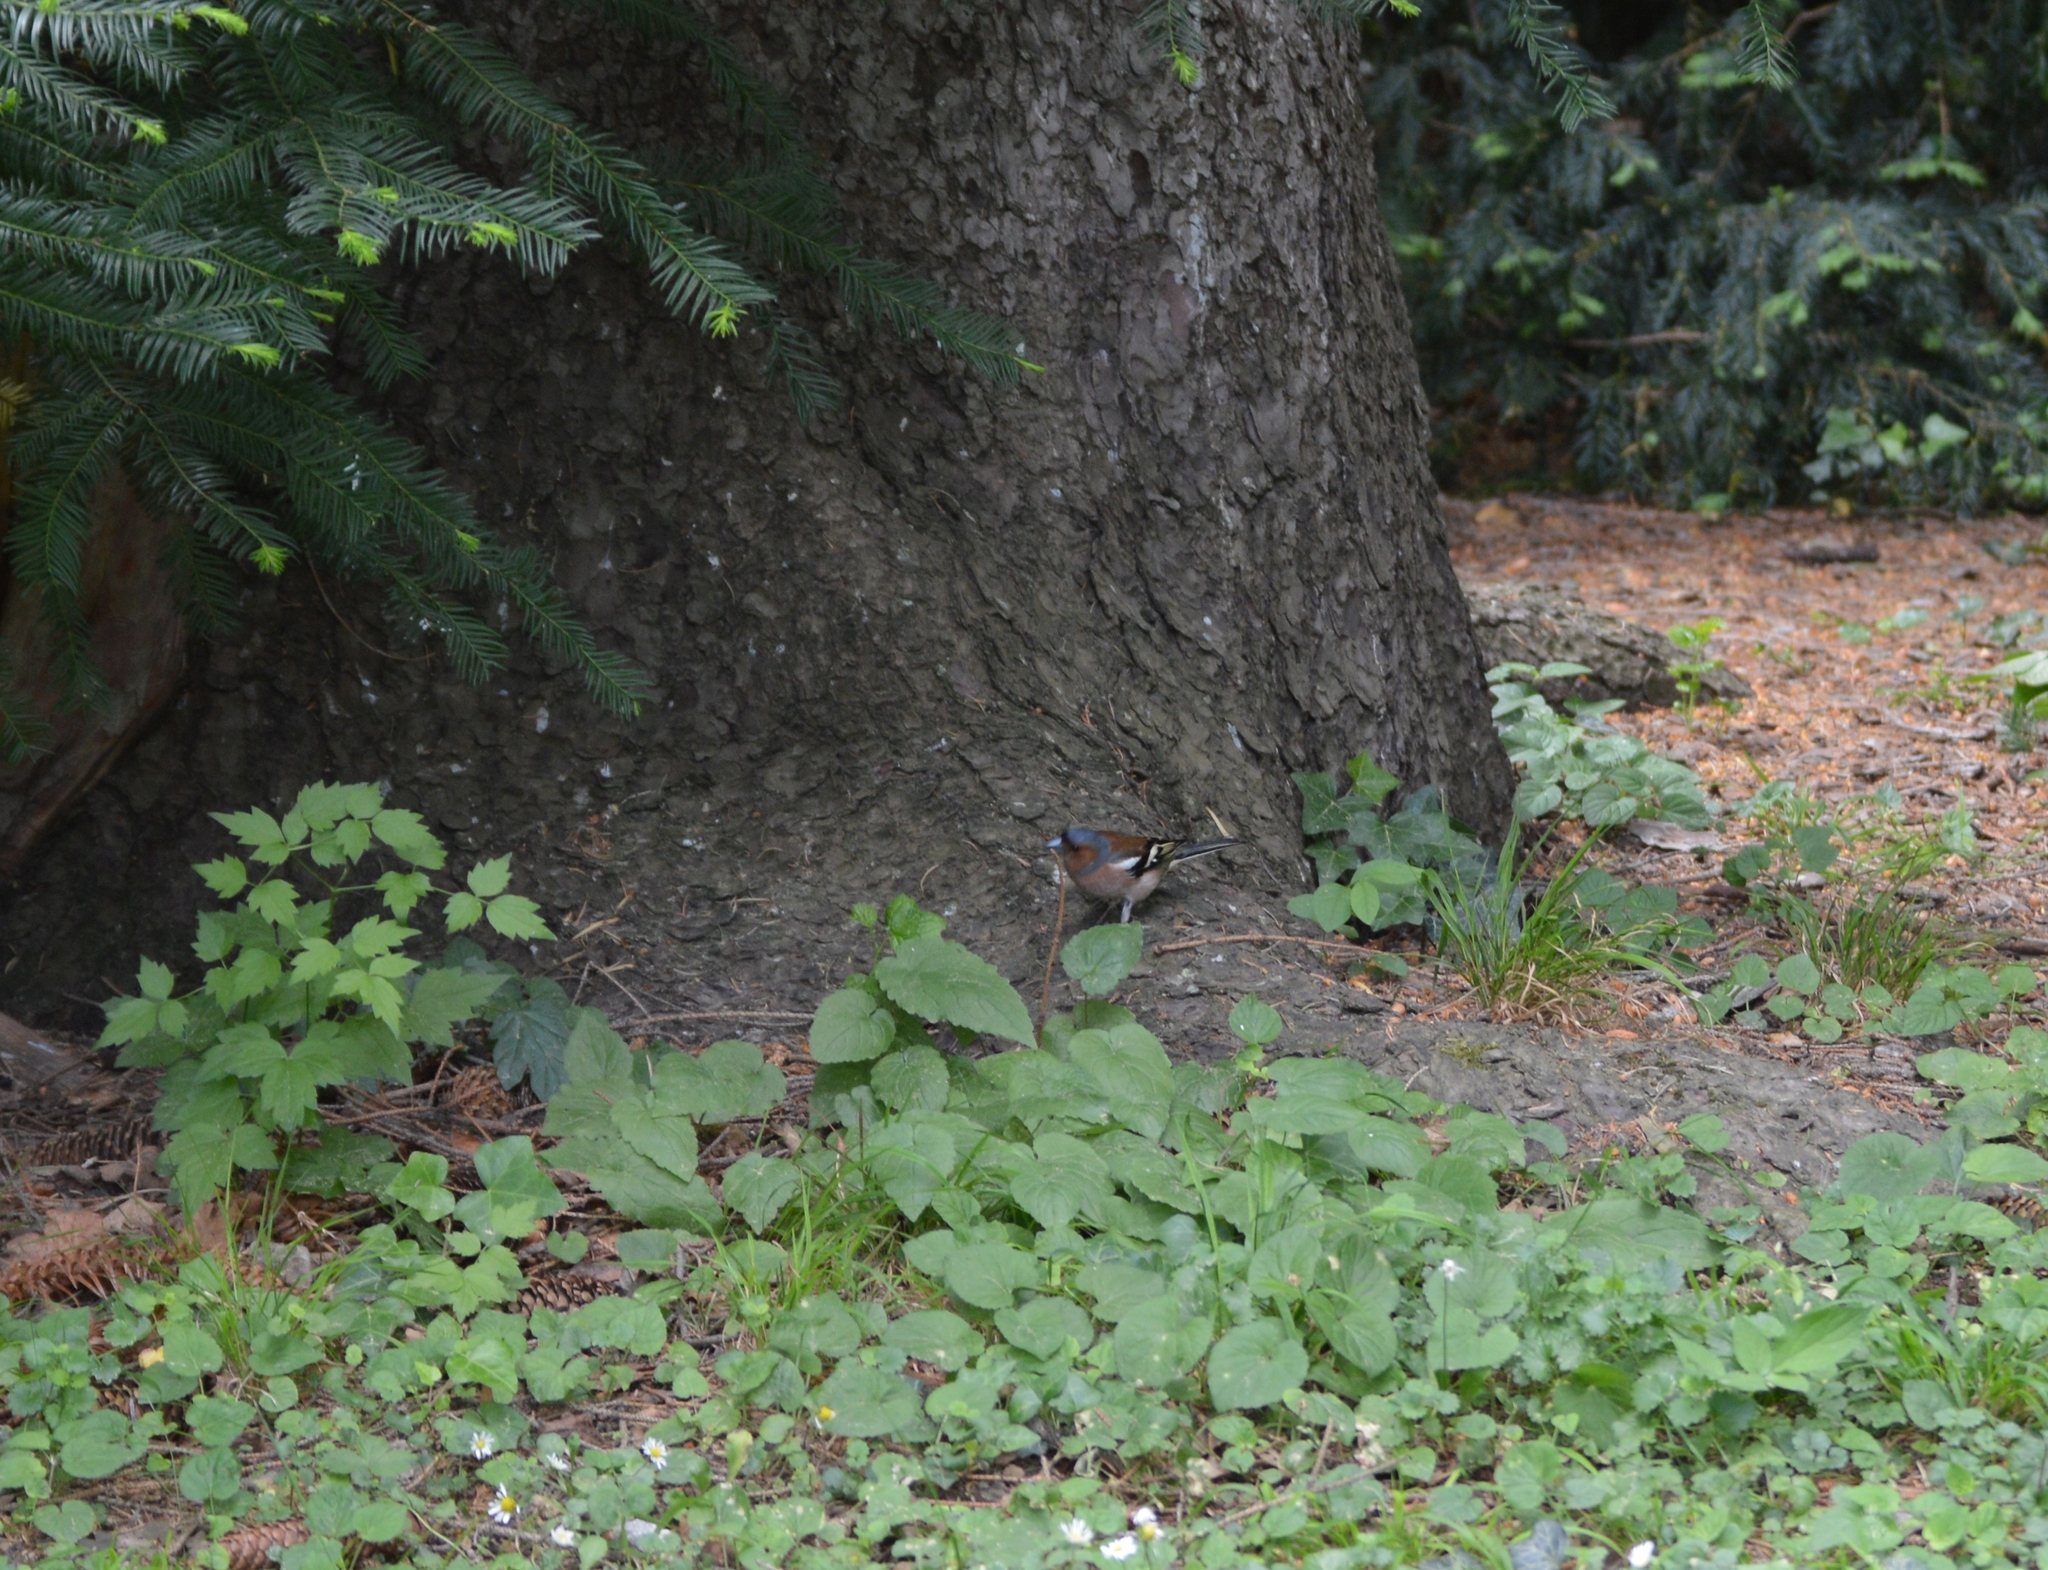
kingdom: Animalia
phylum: Chordata
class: Aves
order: Passeriformes
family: Fringillidae
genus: Fringilla
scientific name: Fringilla coelebs
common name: Common chaffinch
